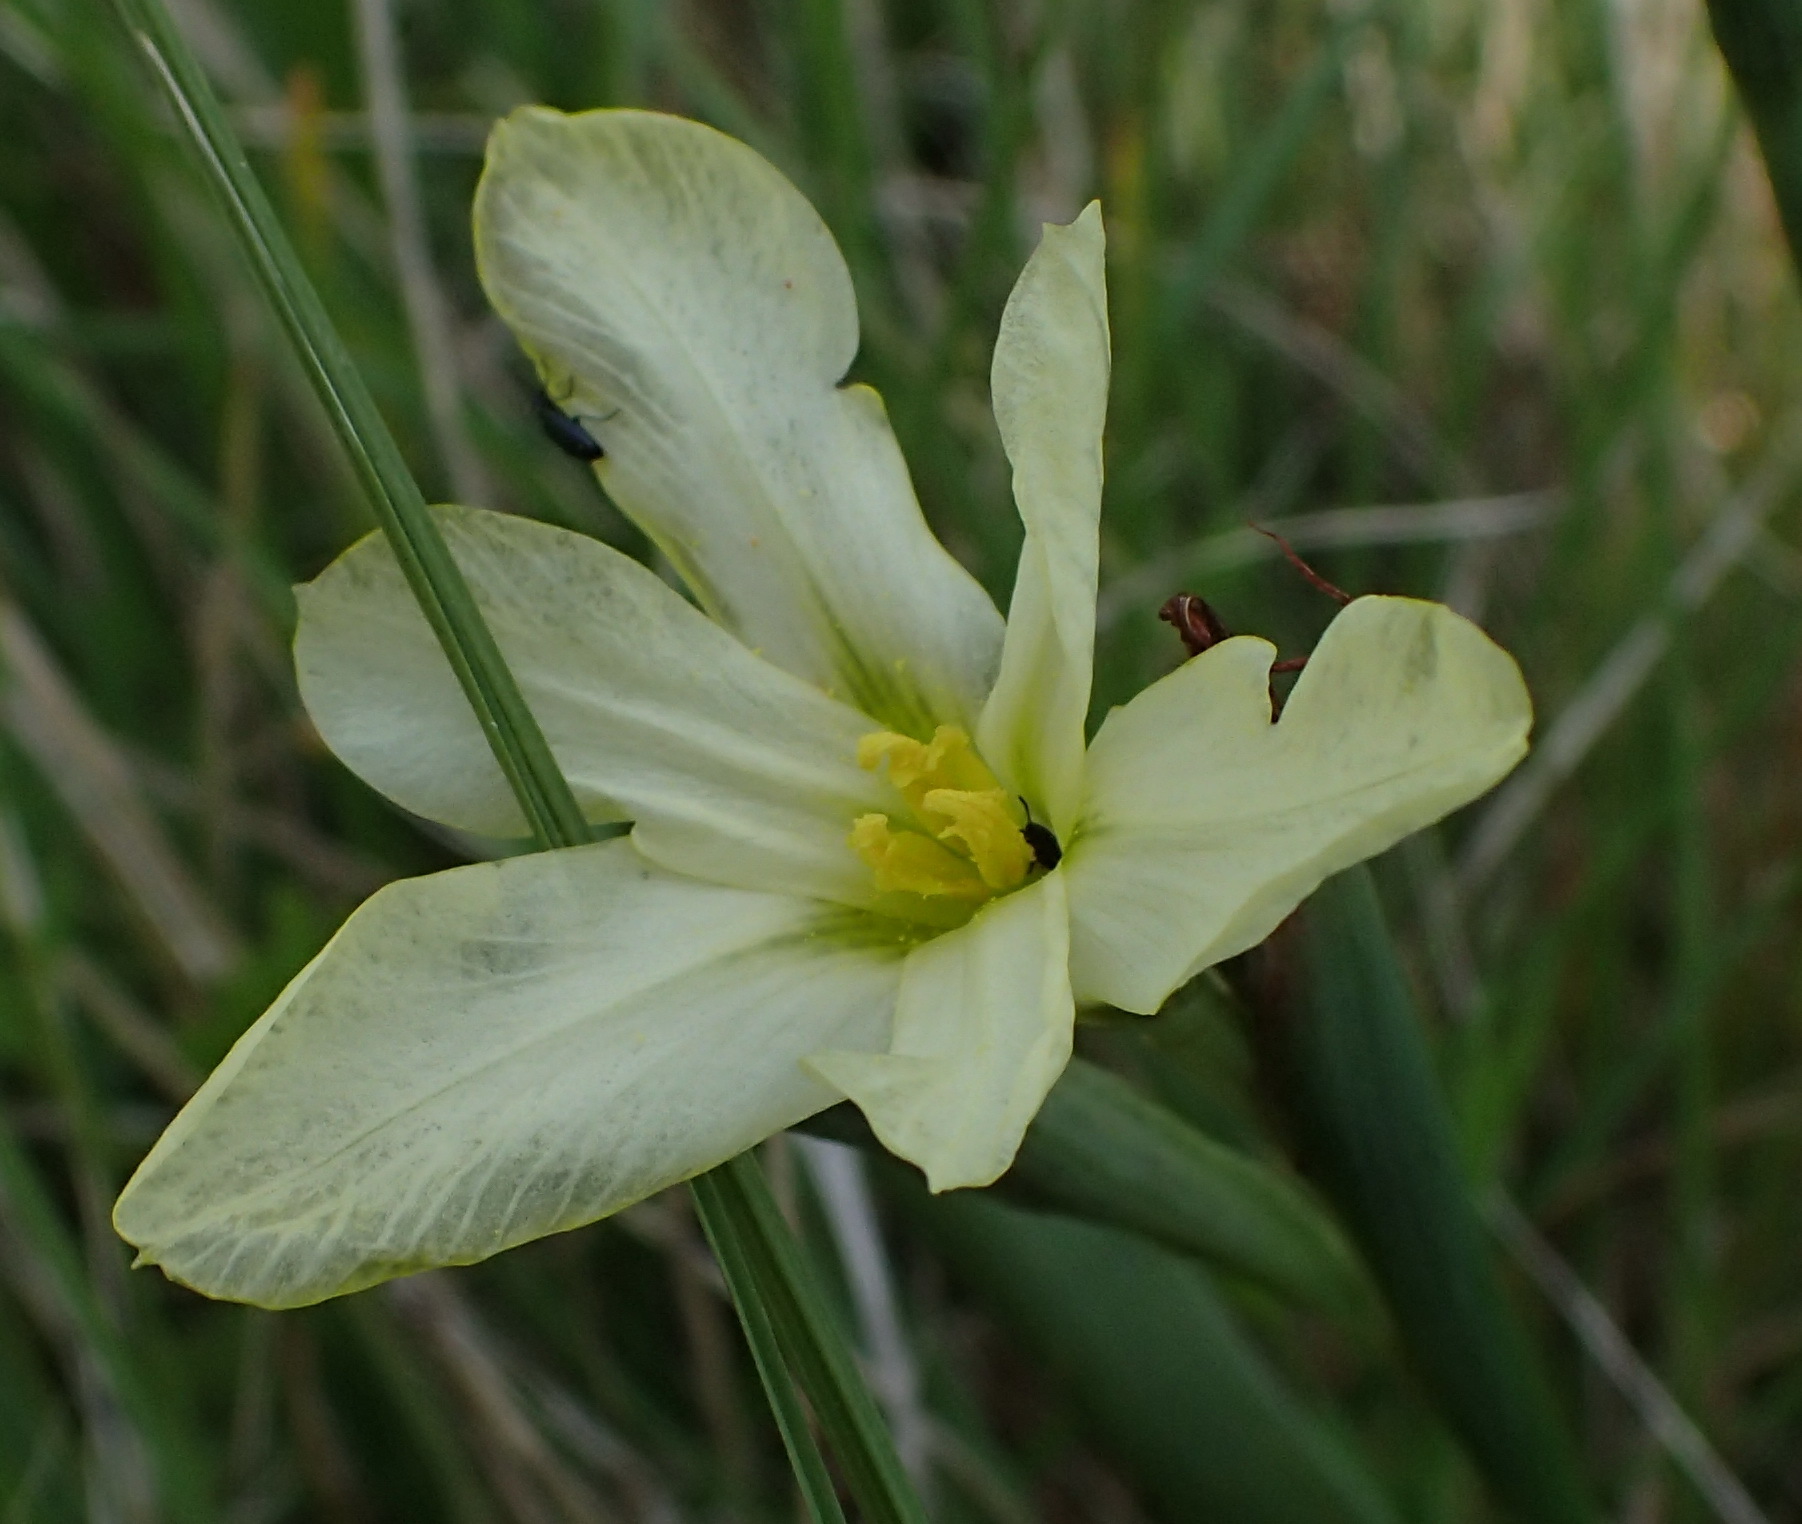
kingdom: Plantae
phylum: Tracheophyta
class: Liliopsida
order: Asparagales
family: Iridaceae
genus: Moraea
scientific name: Moraea bulbillifera
